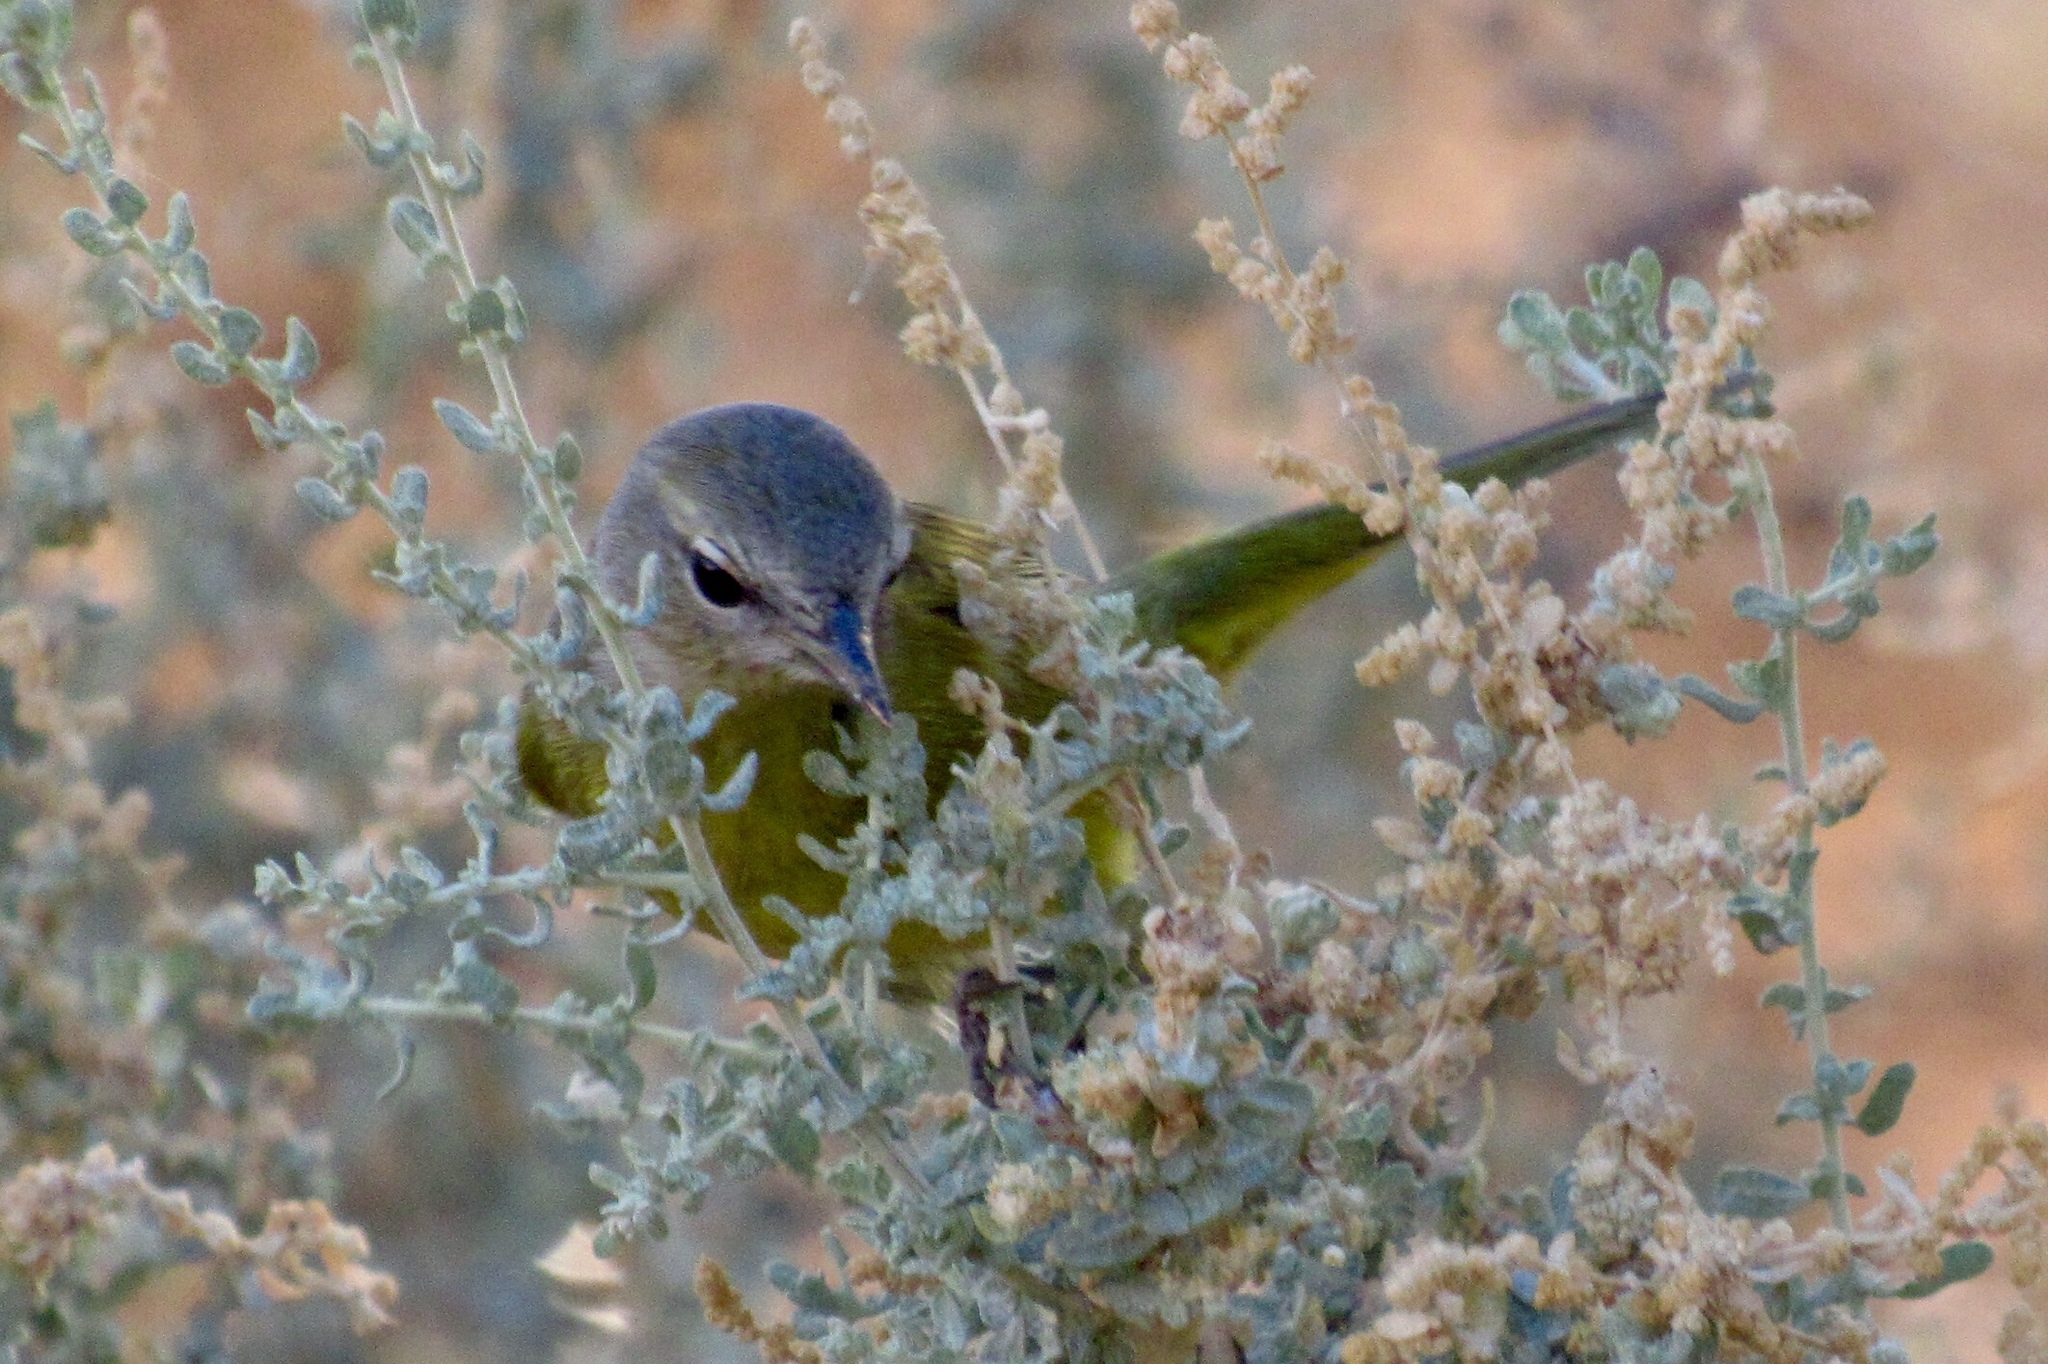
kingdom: Animalia
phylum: Chordata
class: Aves
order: Passeriformes
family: Parulidae
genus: Leiothlypis
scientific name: Leiothlypis celata
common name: Orange-crowned warbler
